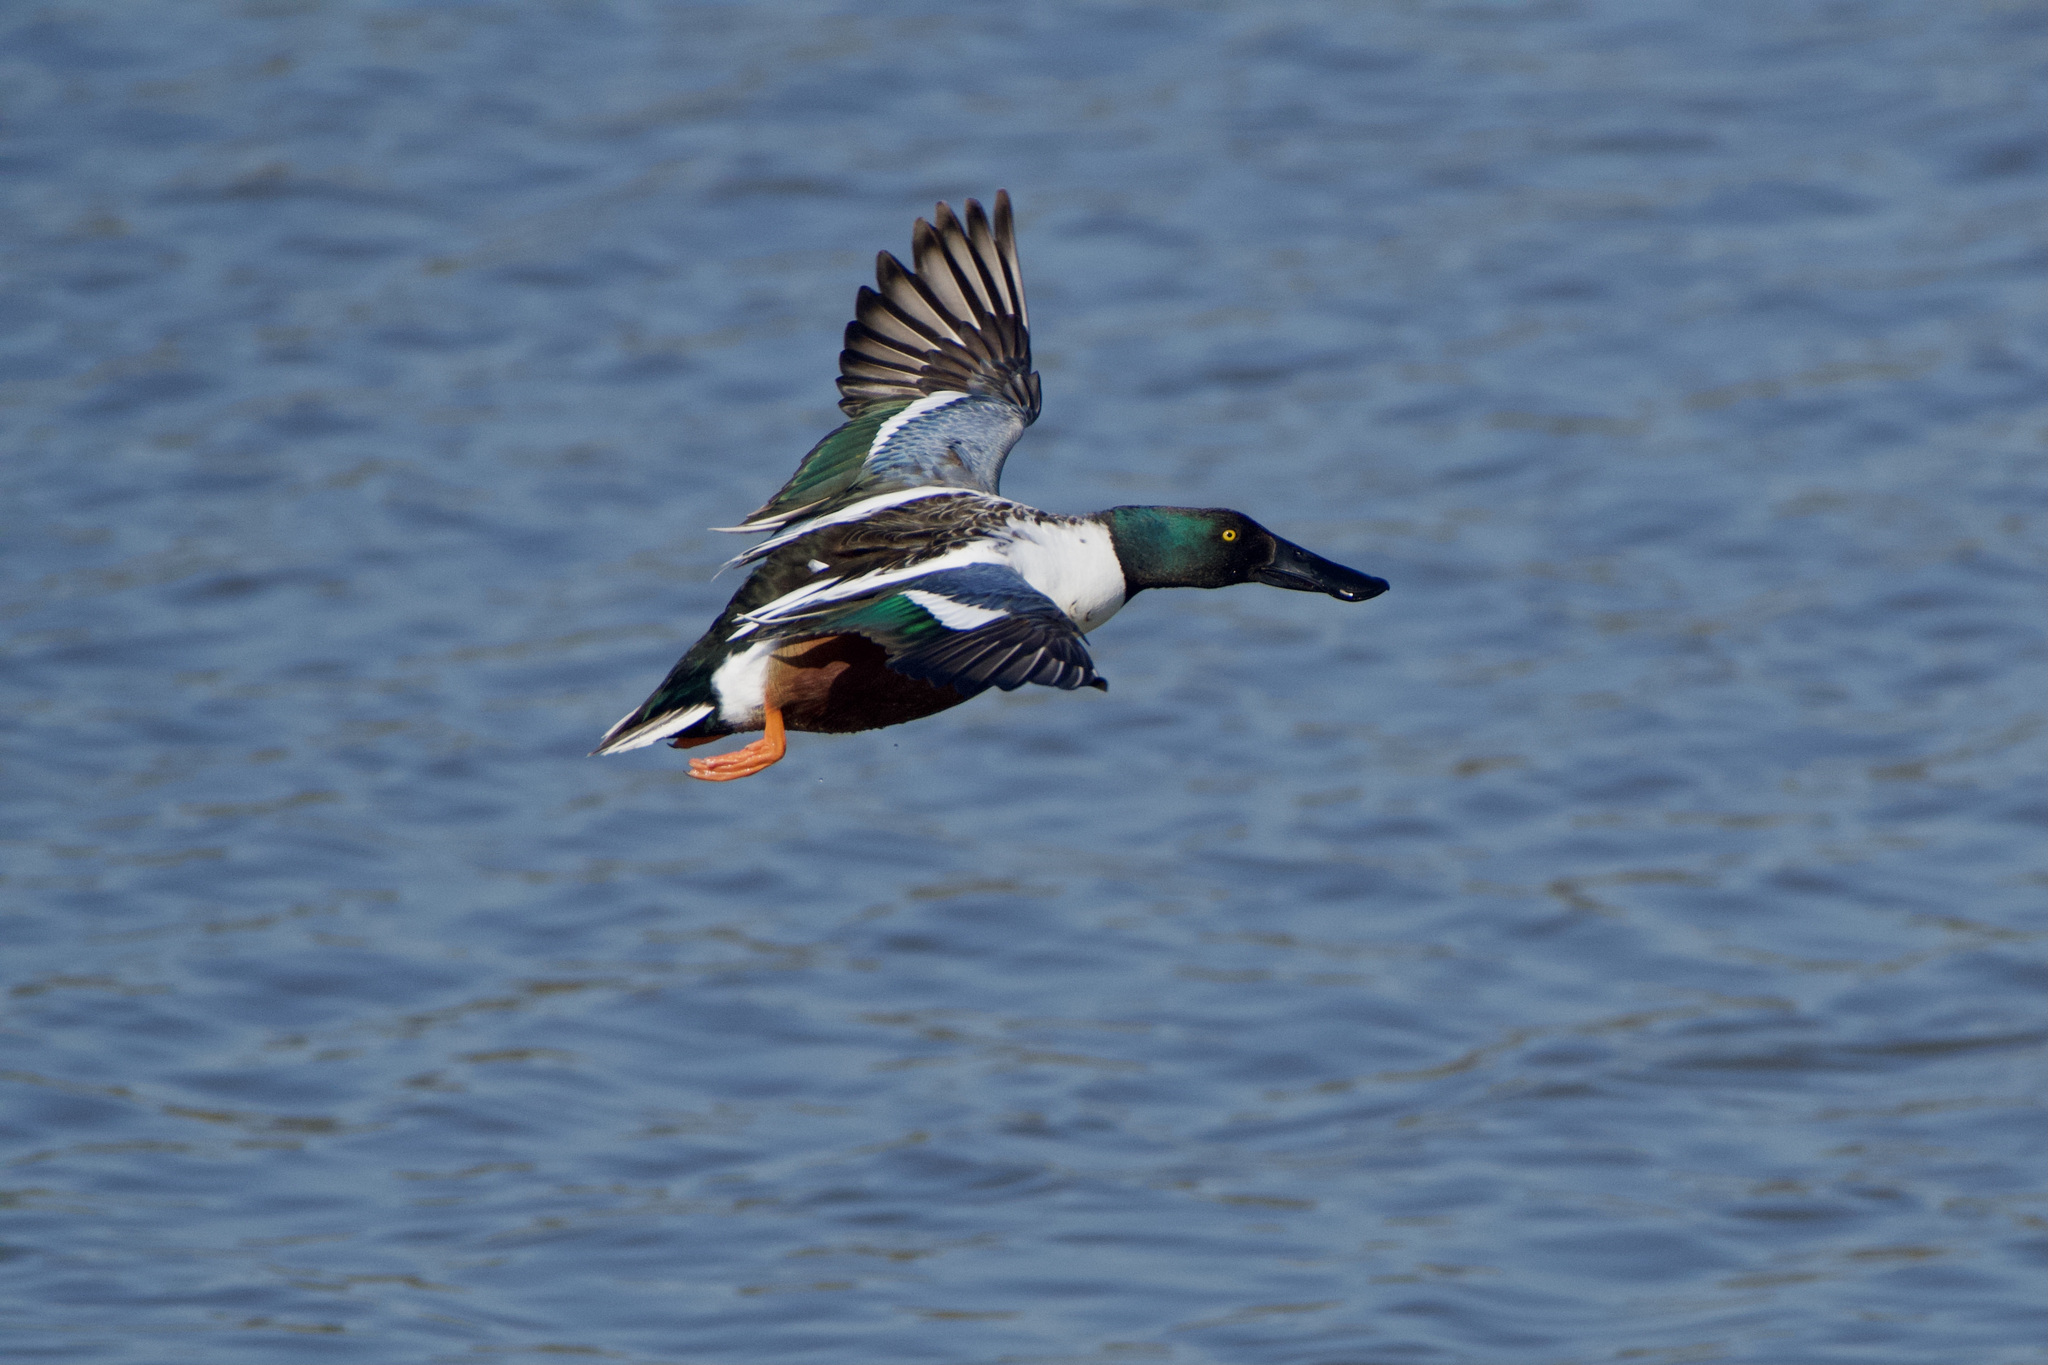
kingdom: Animalia
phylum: Chordata
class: Aves
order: Anseriformes
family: Anatidae
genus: Spatula
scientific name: Spatula clypeata
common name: Northern shoveler
